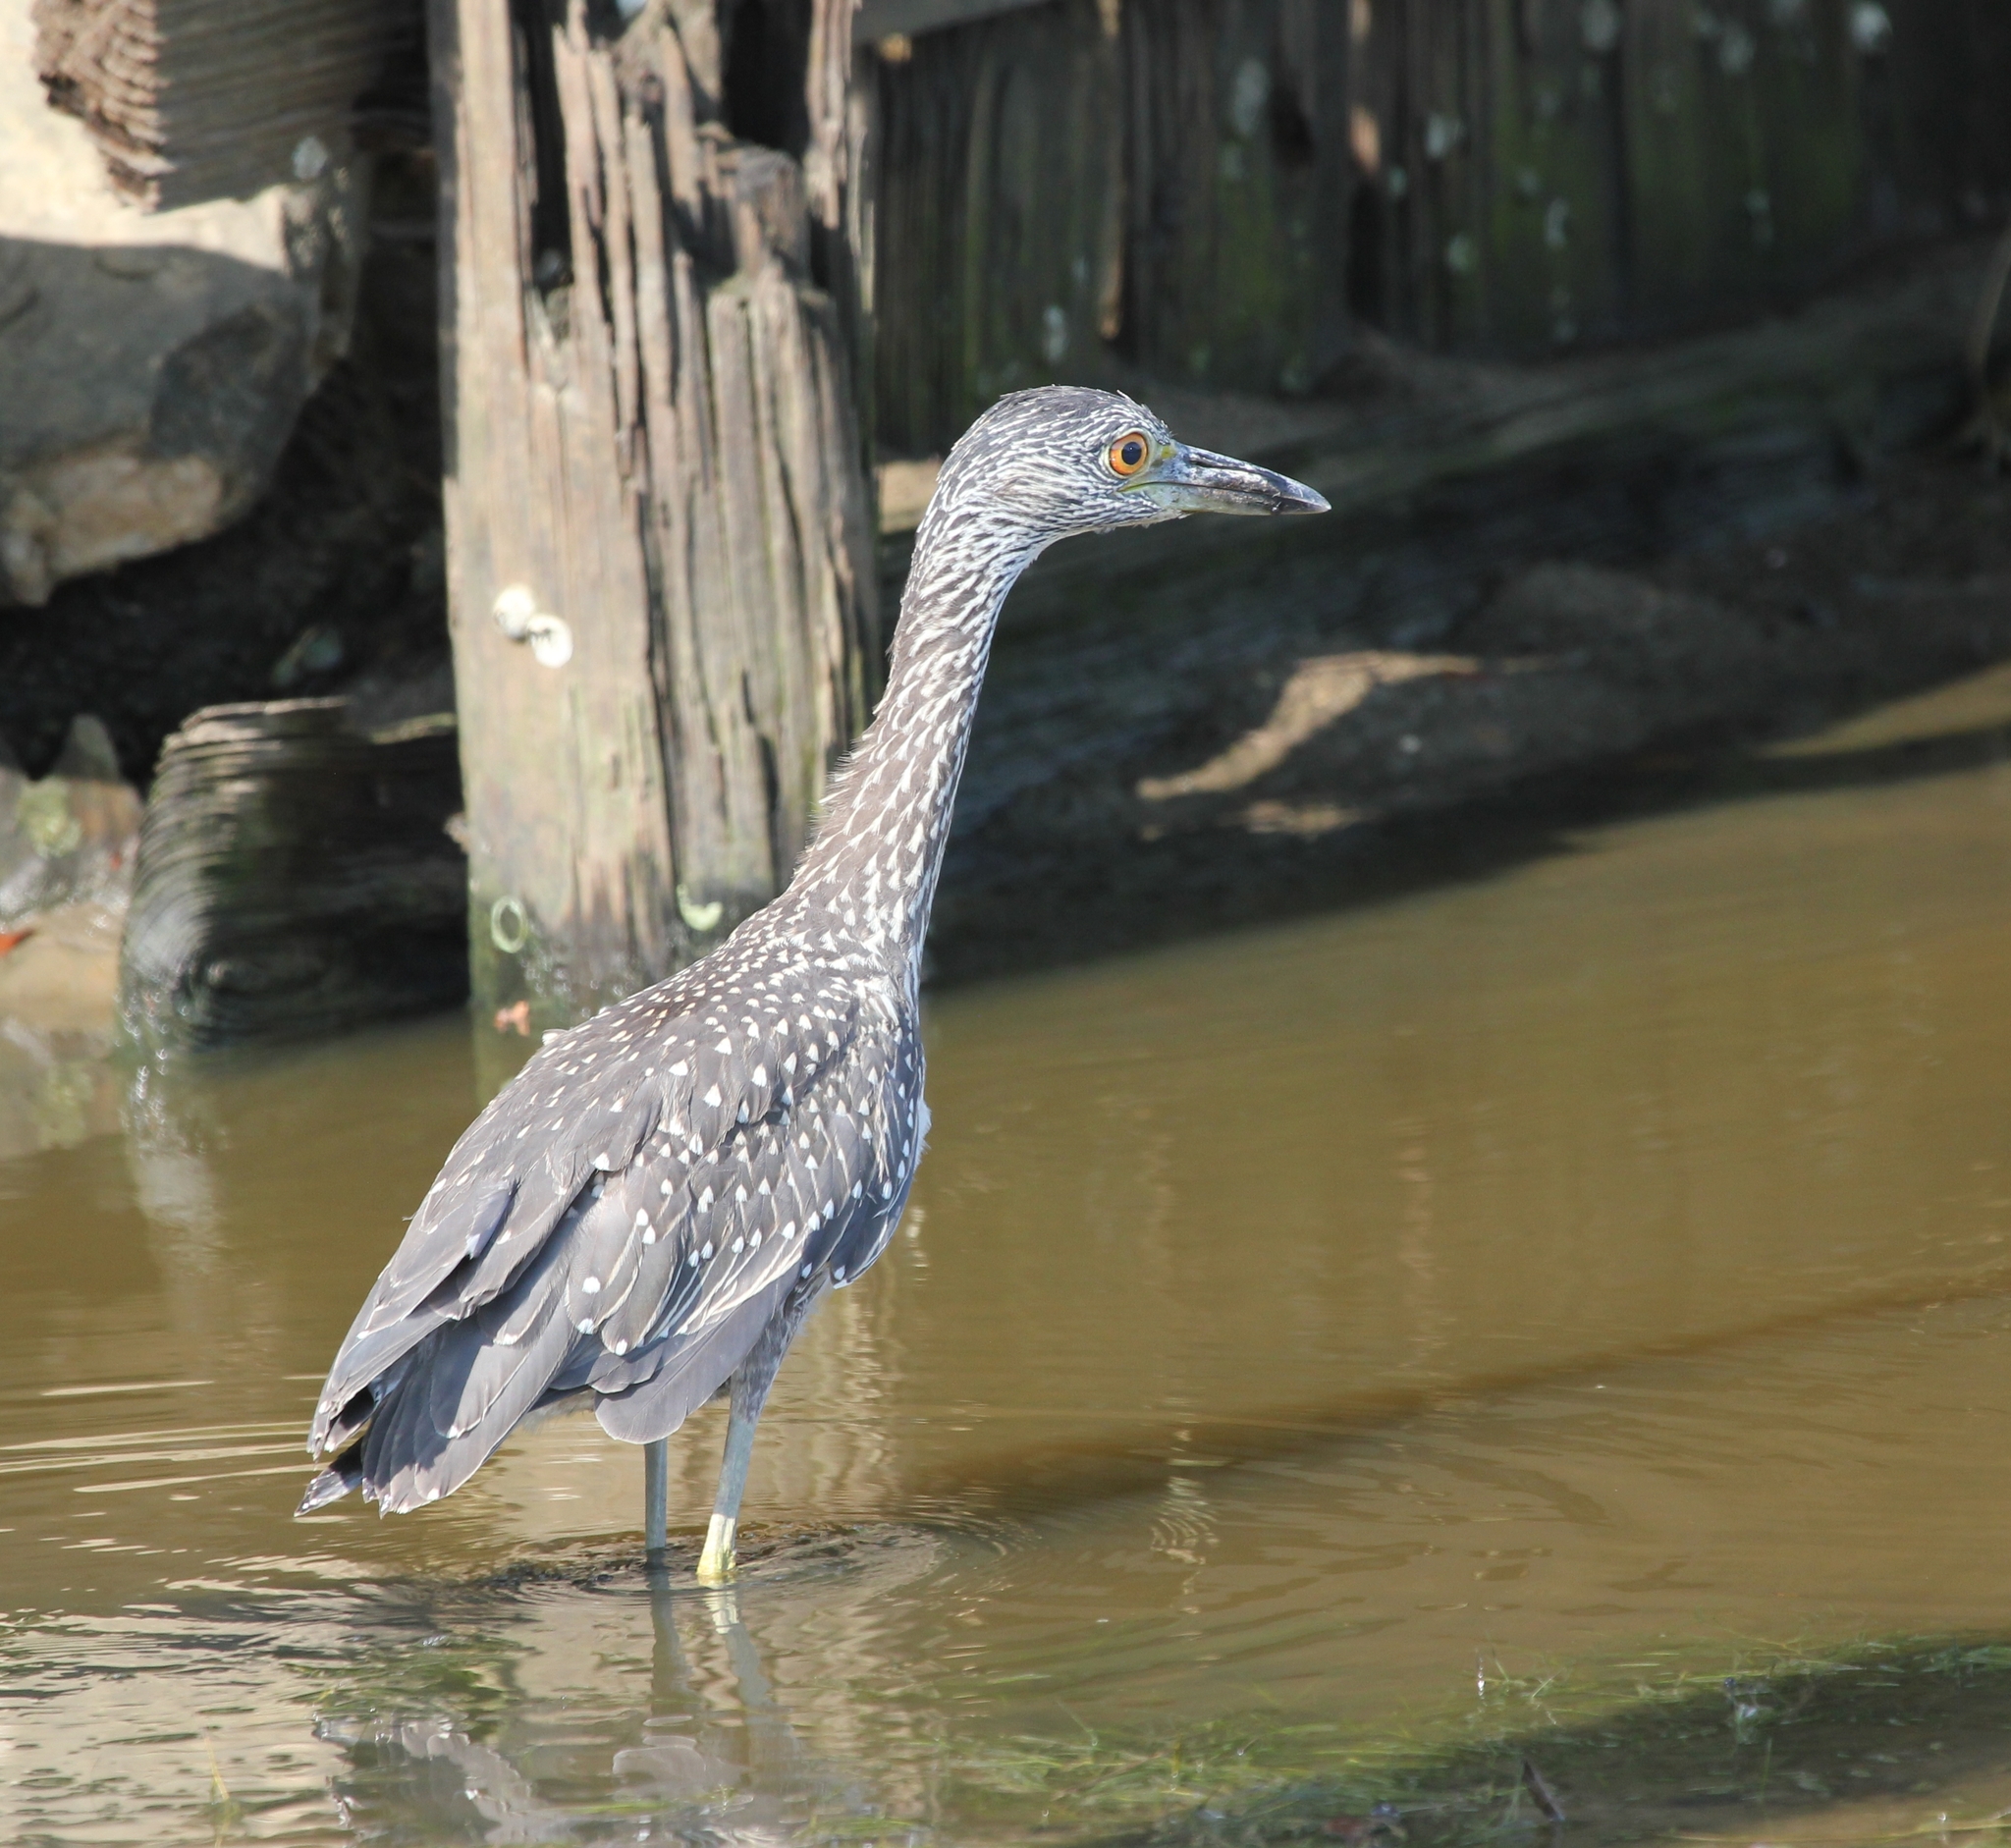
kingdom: Animalia
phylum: Chordata
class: Aves
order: Pelecaniformes
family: Ardeidae
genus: Nyctanassa
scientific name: Nyctanassa violacea
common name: Yellow-crowned night heron
